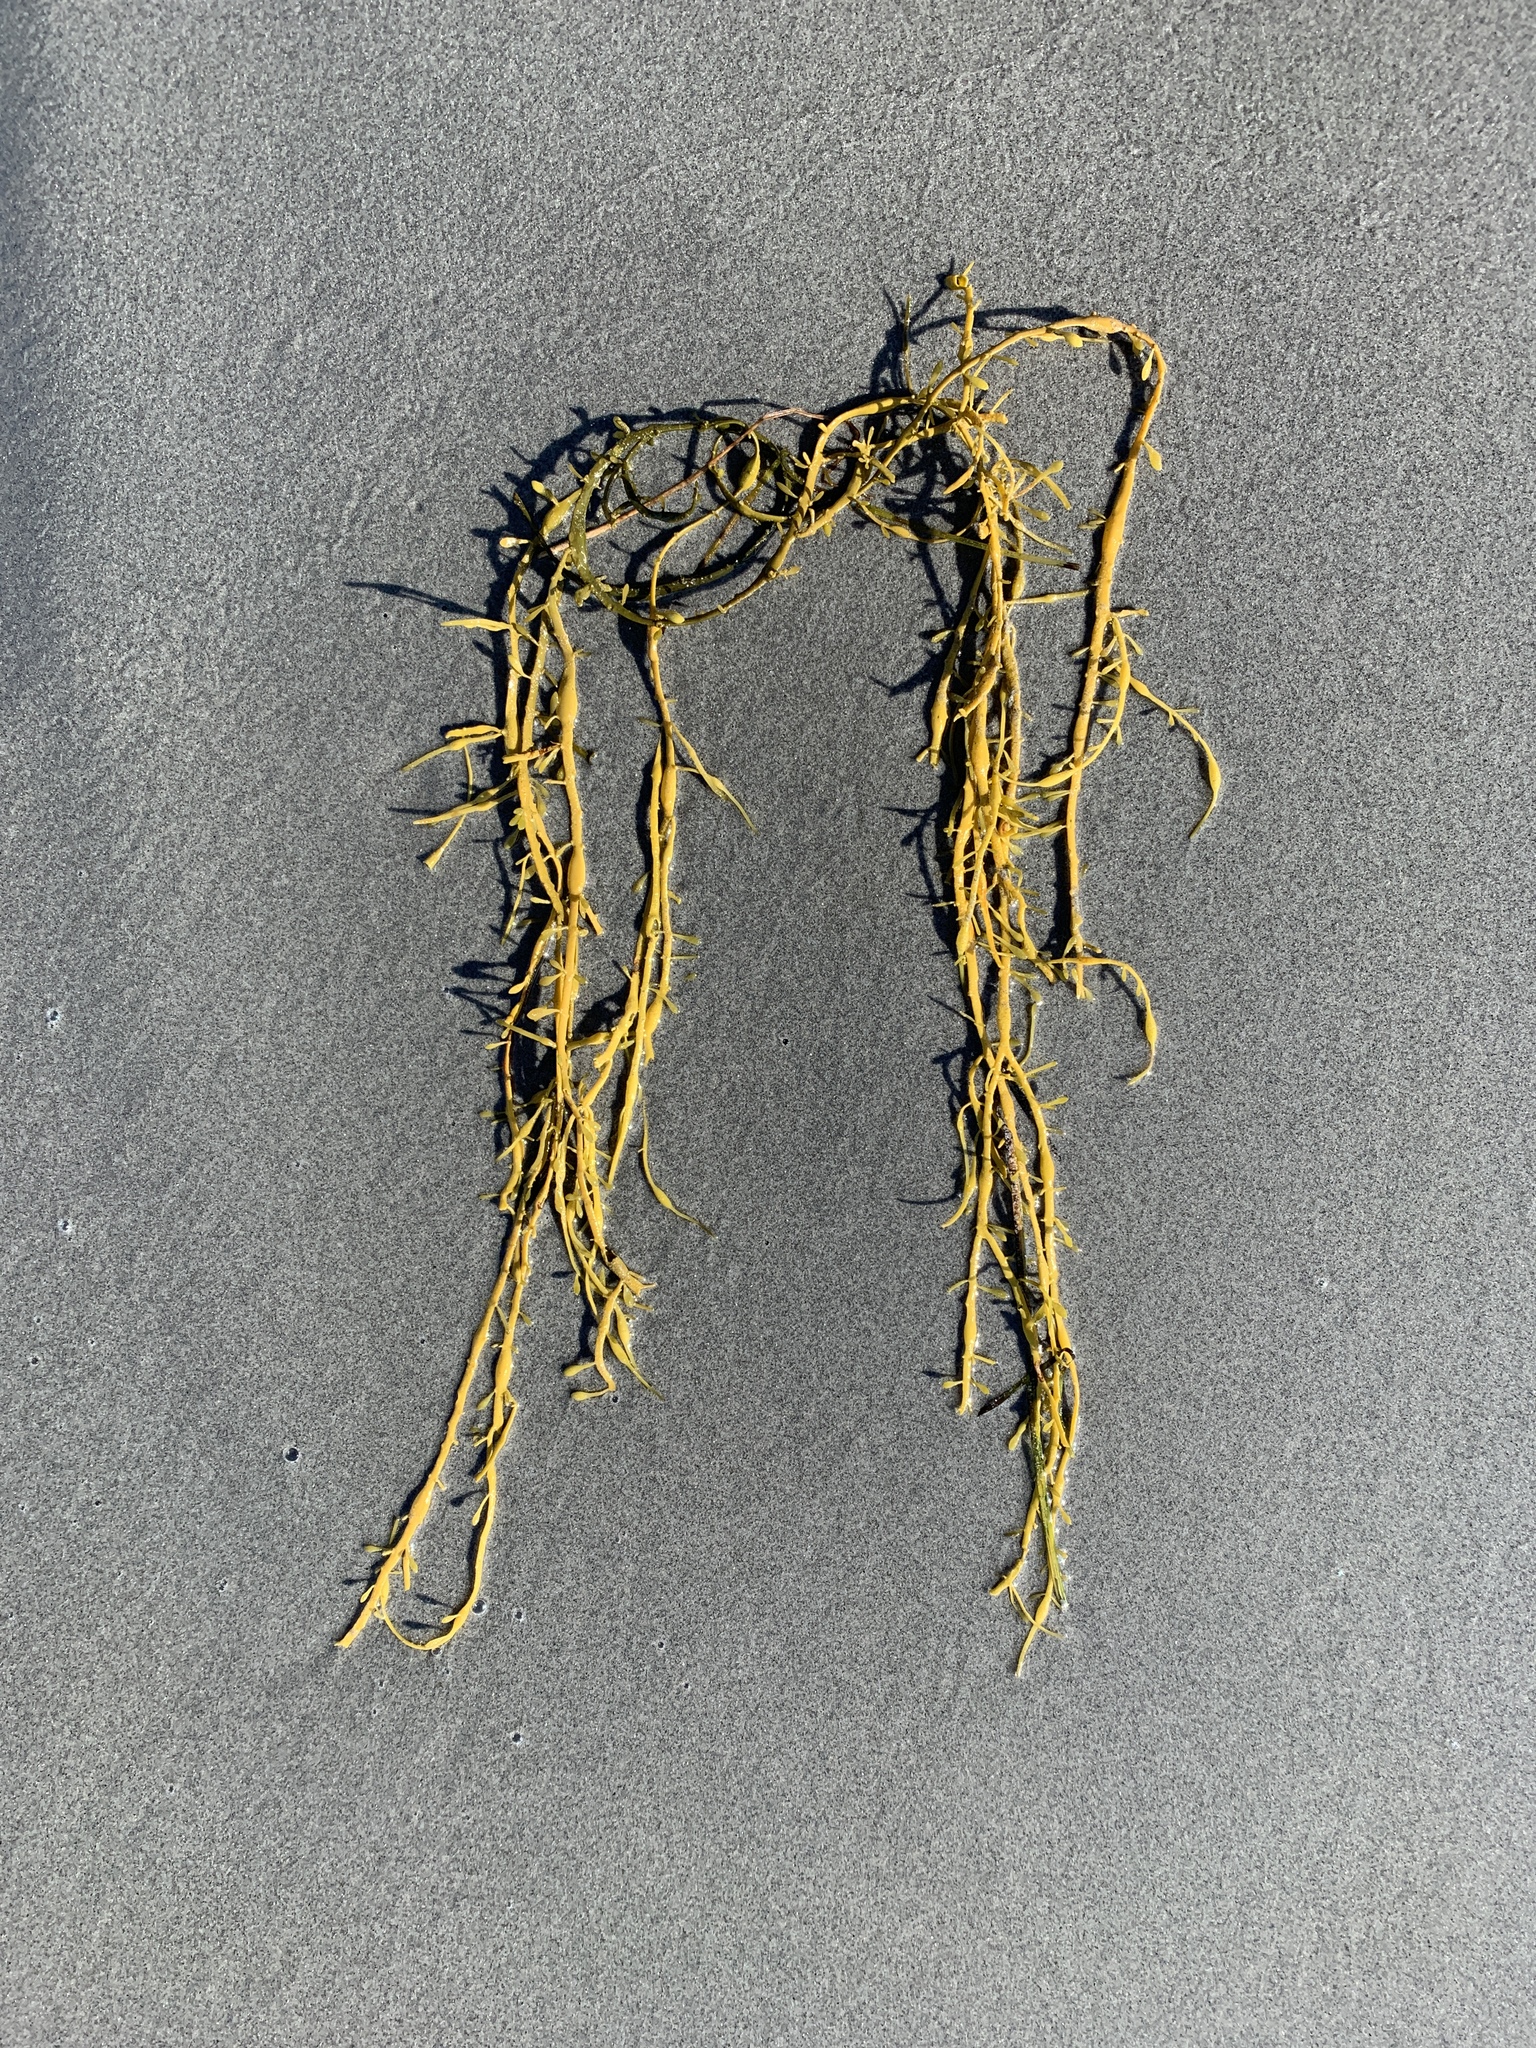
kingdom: Chromista
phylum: Ochrophyta
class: Phaeophyceae
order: Fucales
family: Fucaceae
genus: Ascophyllum
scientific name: Ascophyllum nodosum
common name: Knotted wrack
